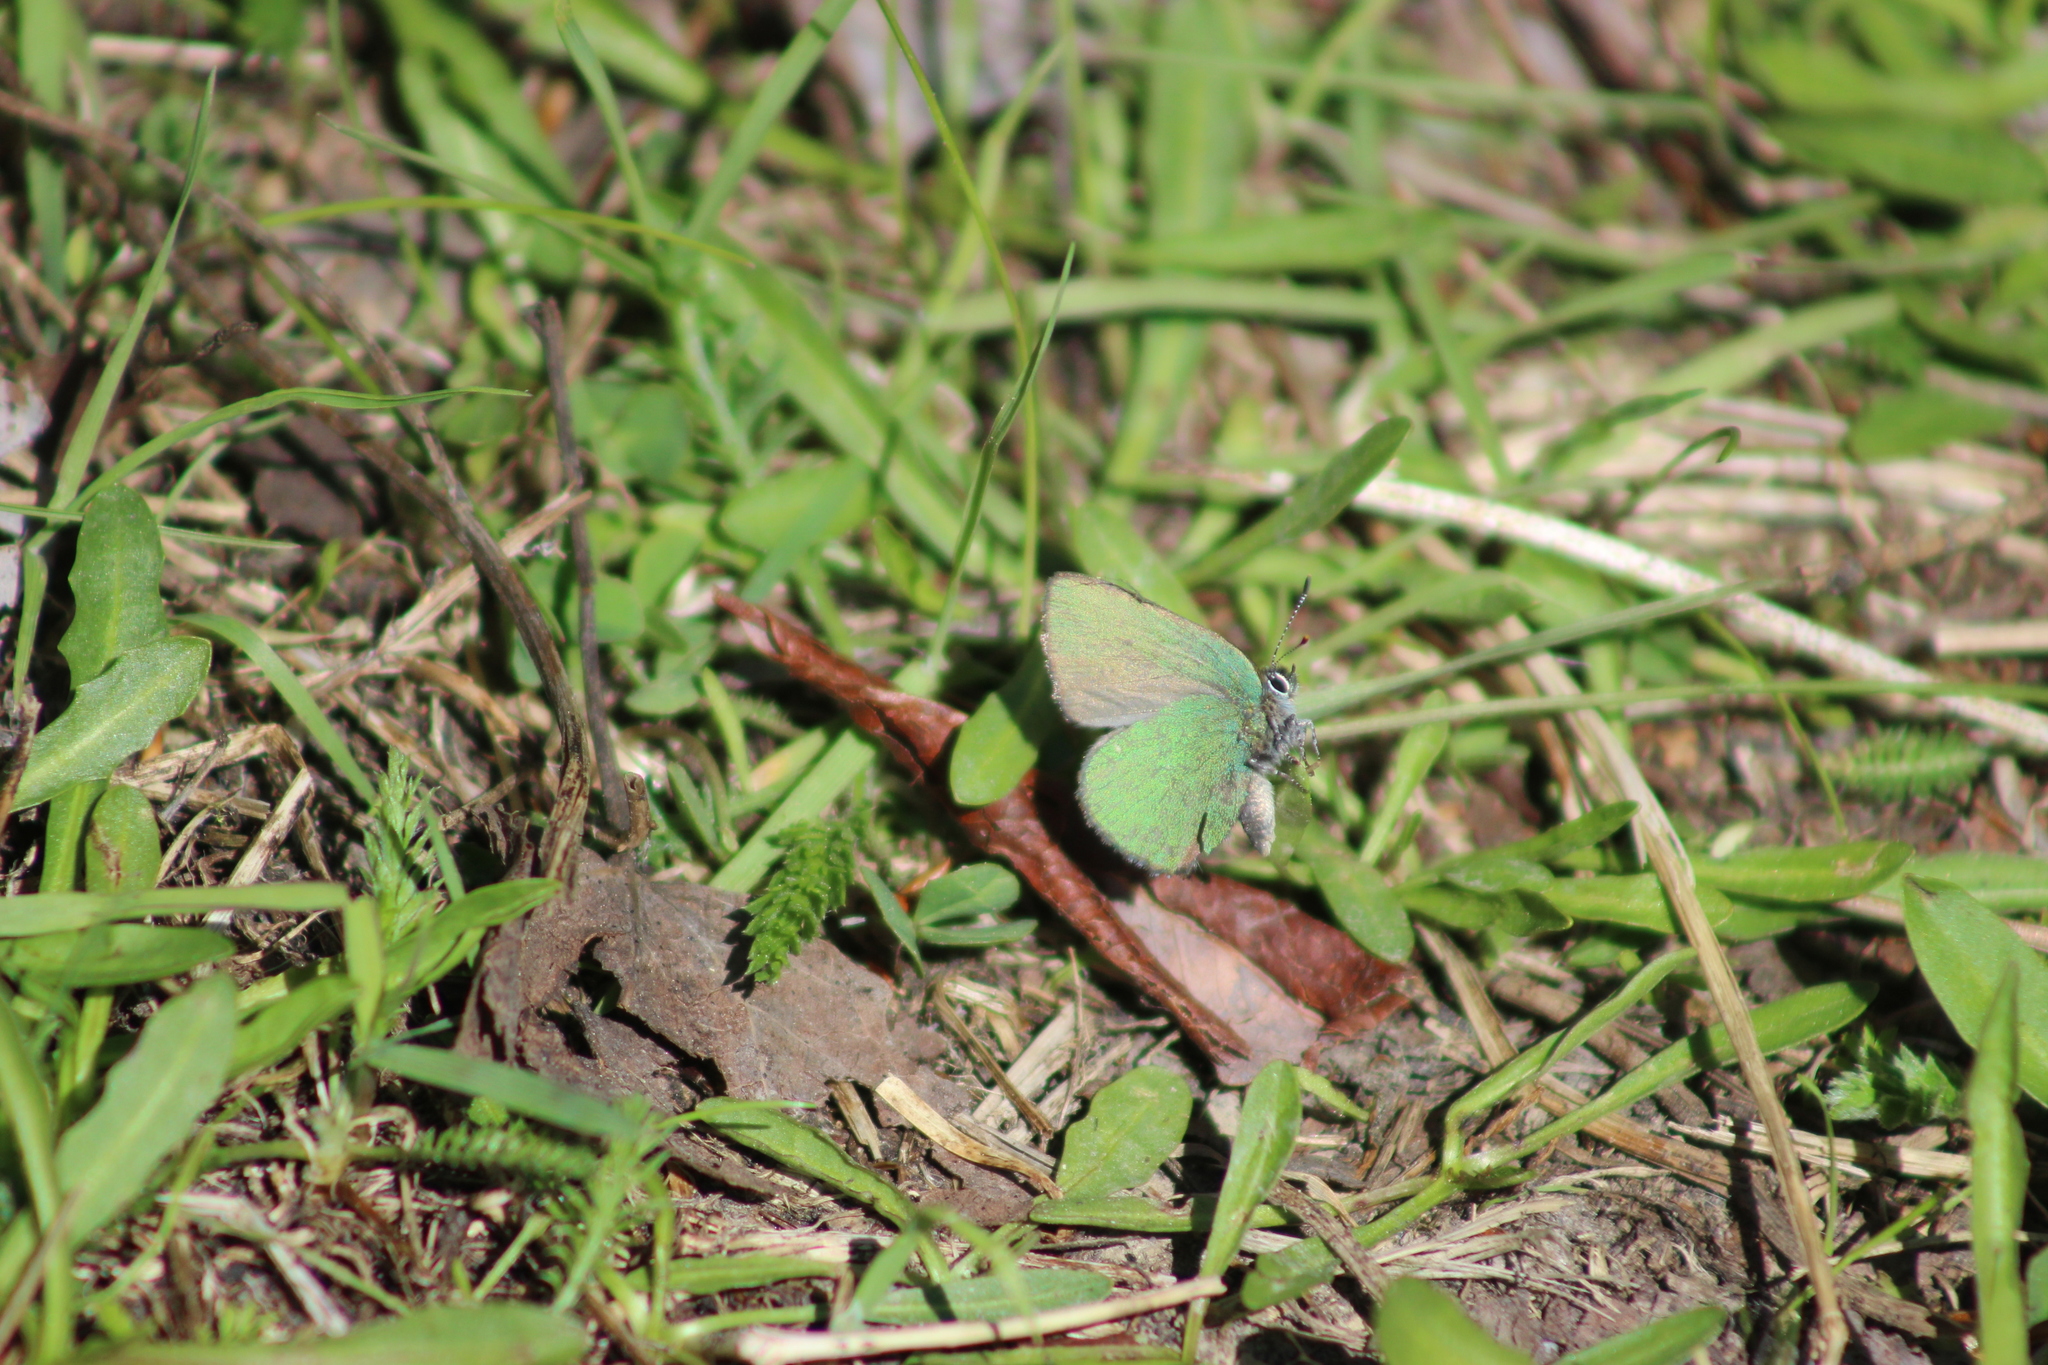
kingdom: Animalia
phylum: Arthropoda
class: Insecta
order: Lepidoptera
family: Lycaenidae
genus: Callophrys
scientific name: Callophrys rubi
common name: Green hairstreak
